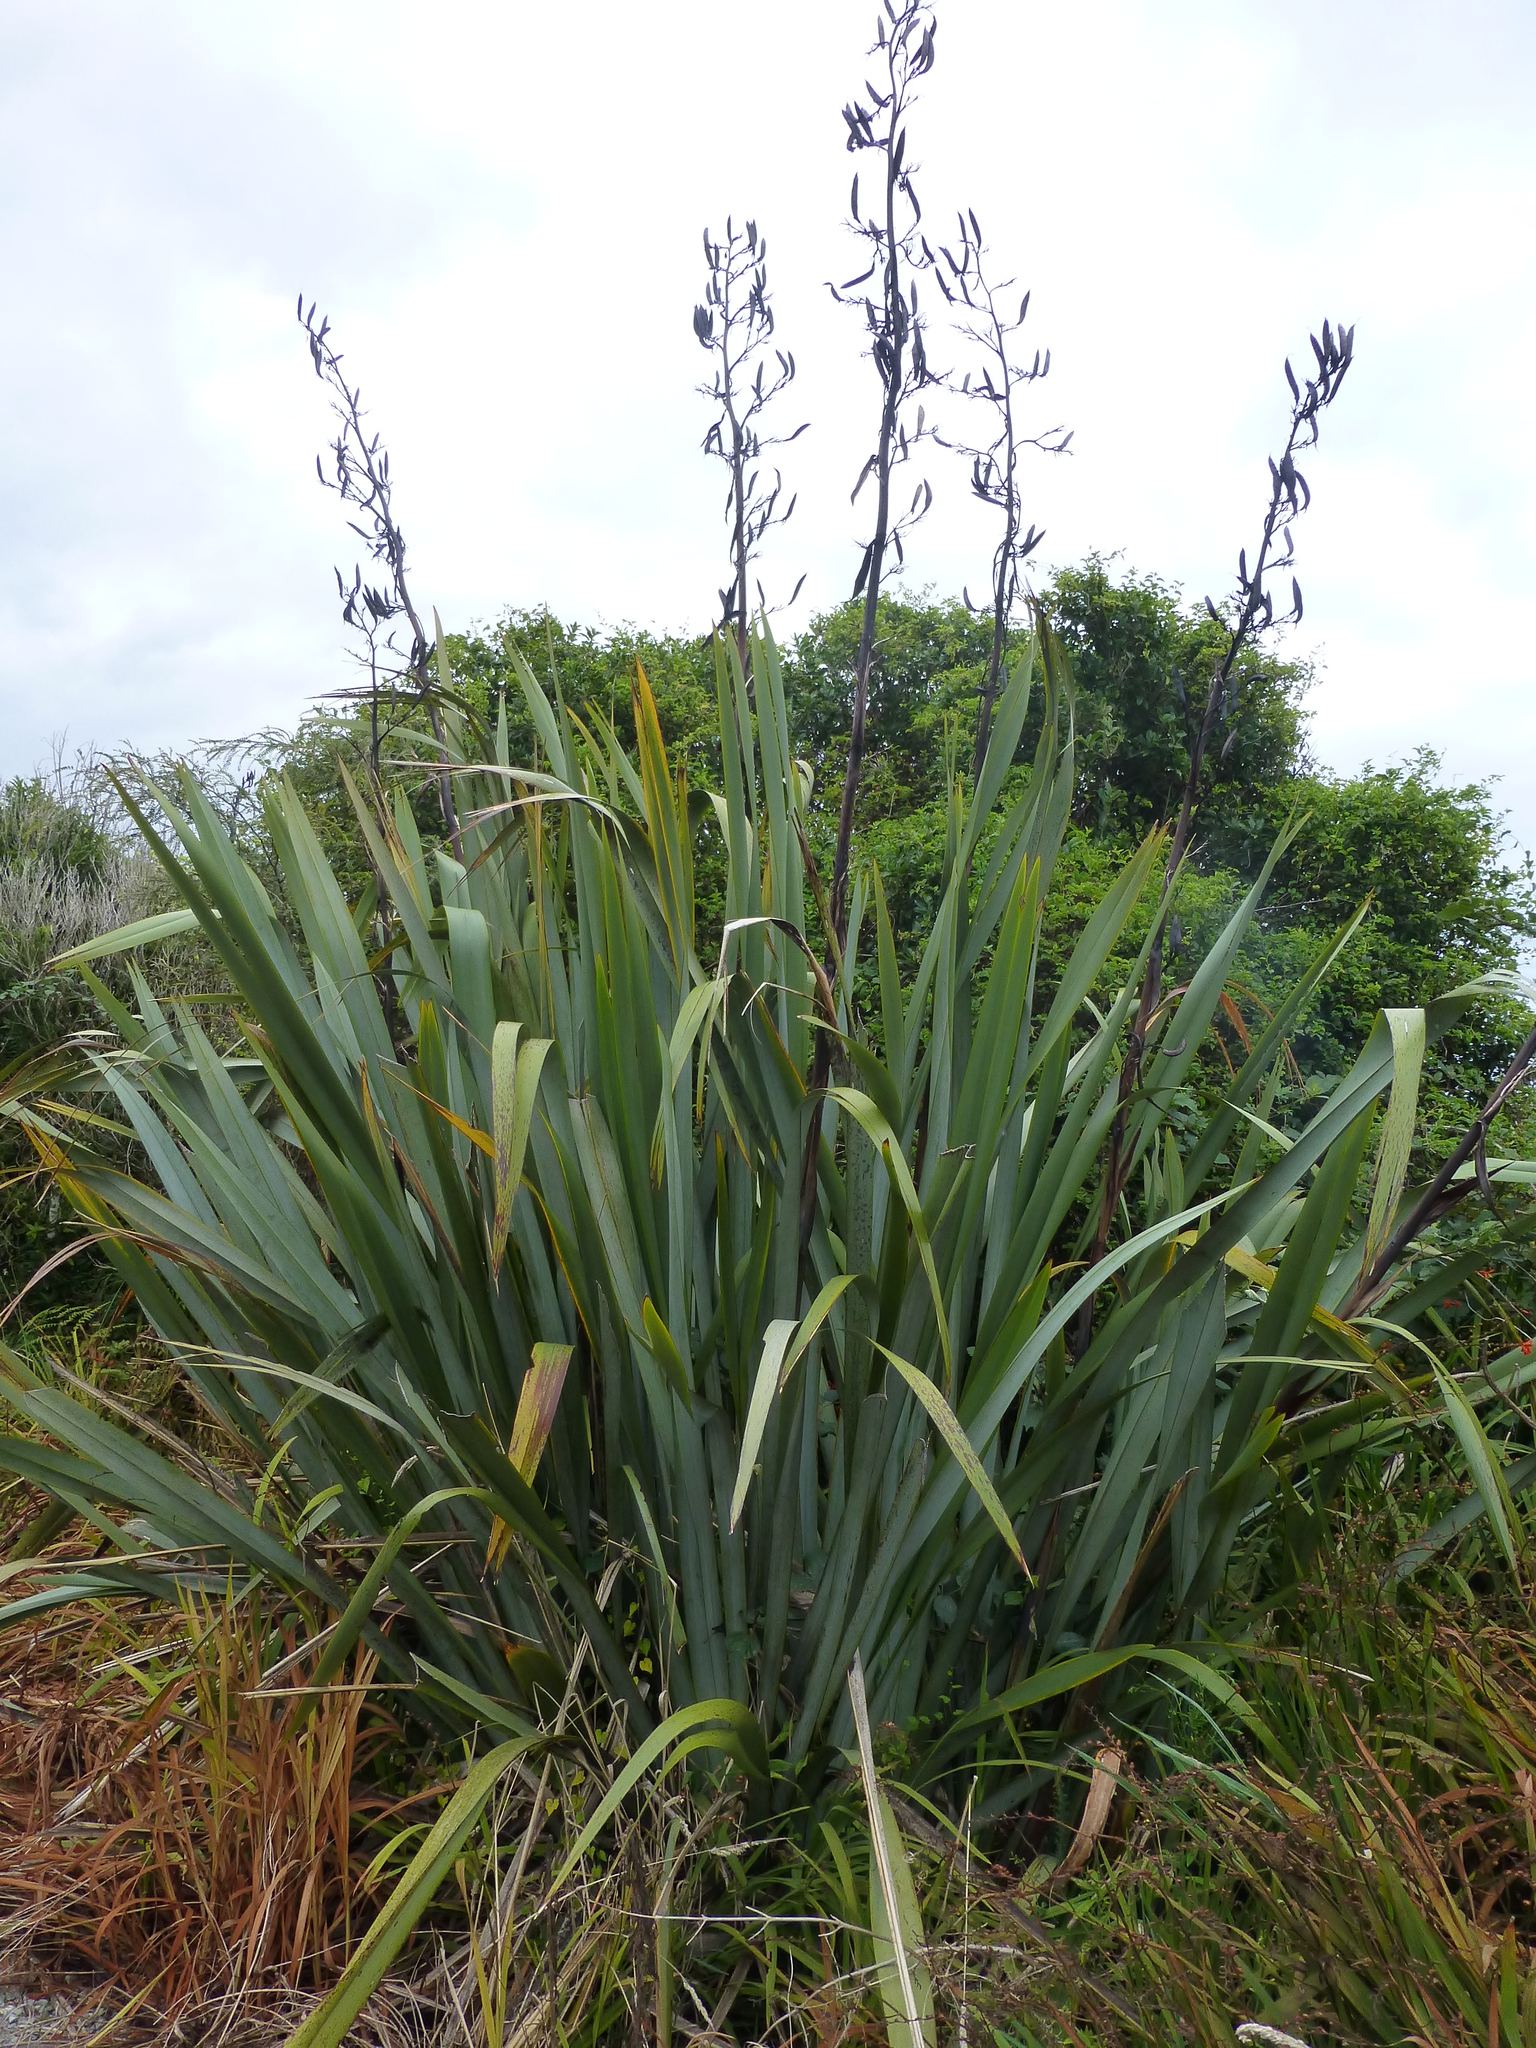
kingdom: Plantae
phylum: Tracheophyta
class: Liliopsida
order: Asparagales
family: Asphodelaceae
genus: Phormium
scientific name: Phormium tenax
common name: New zealand flax
